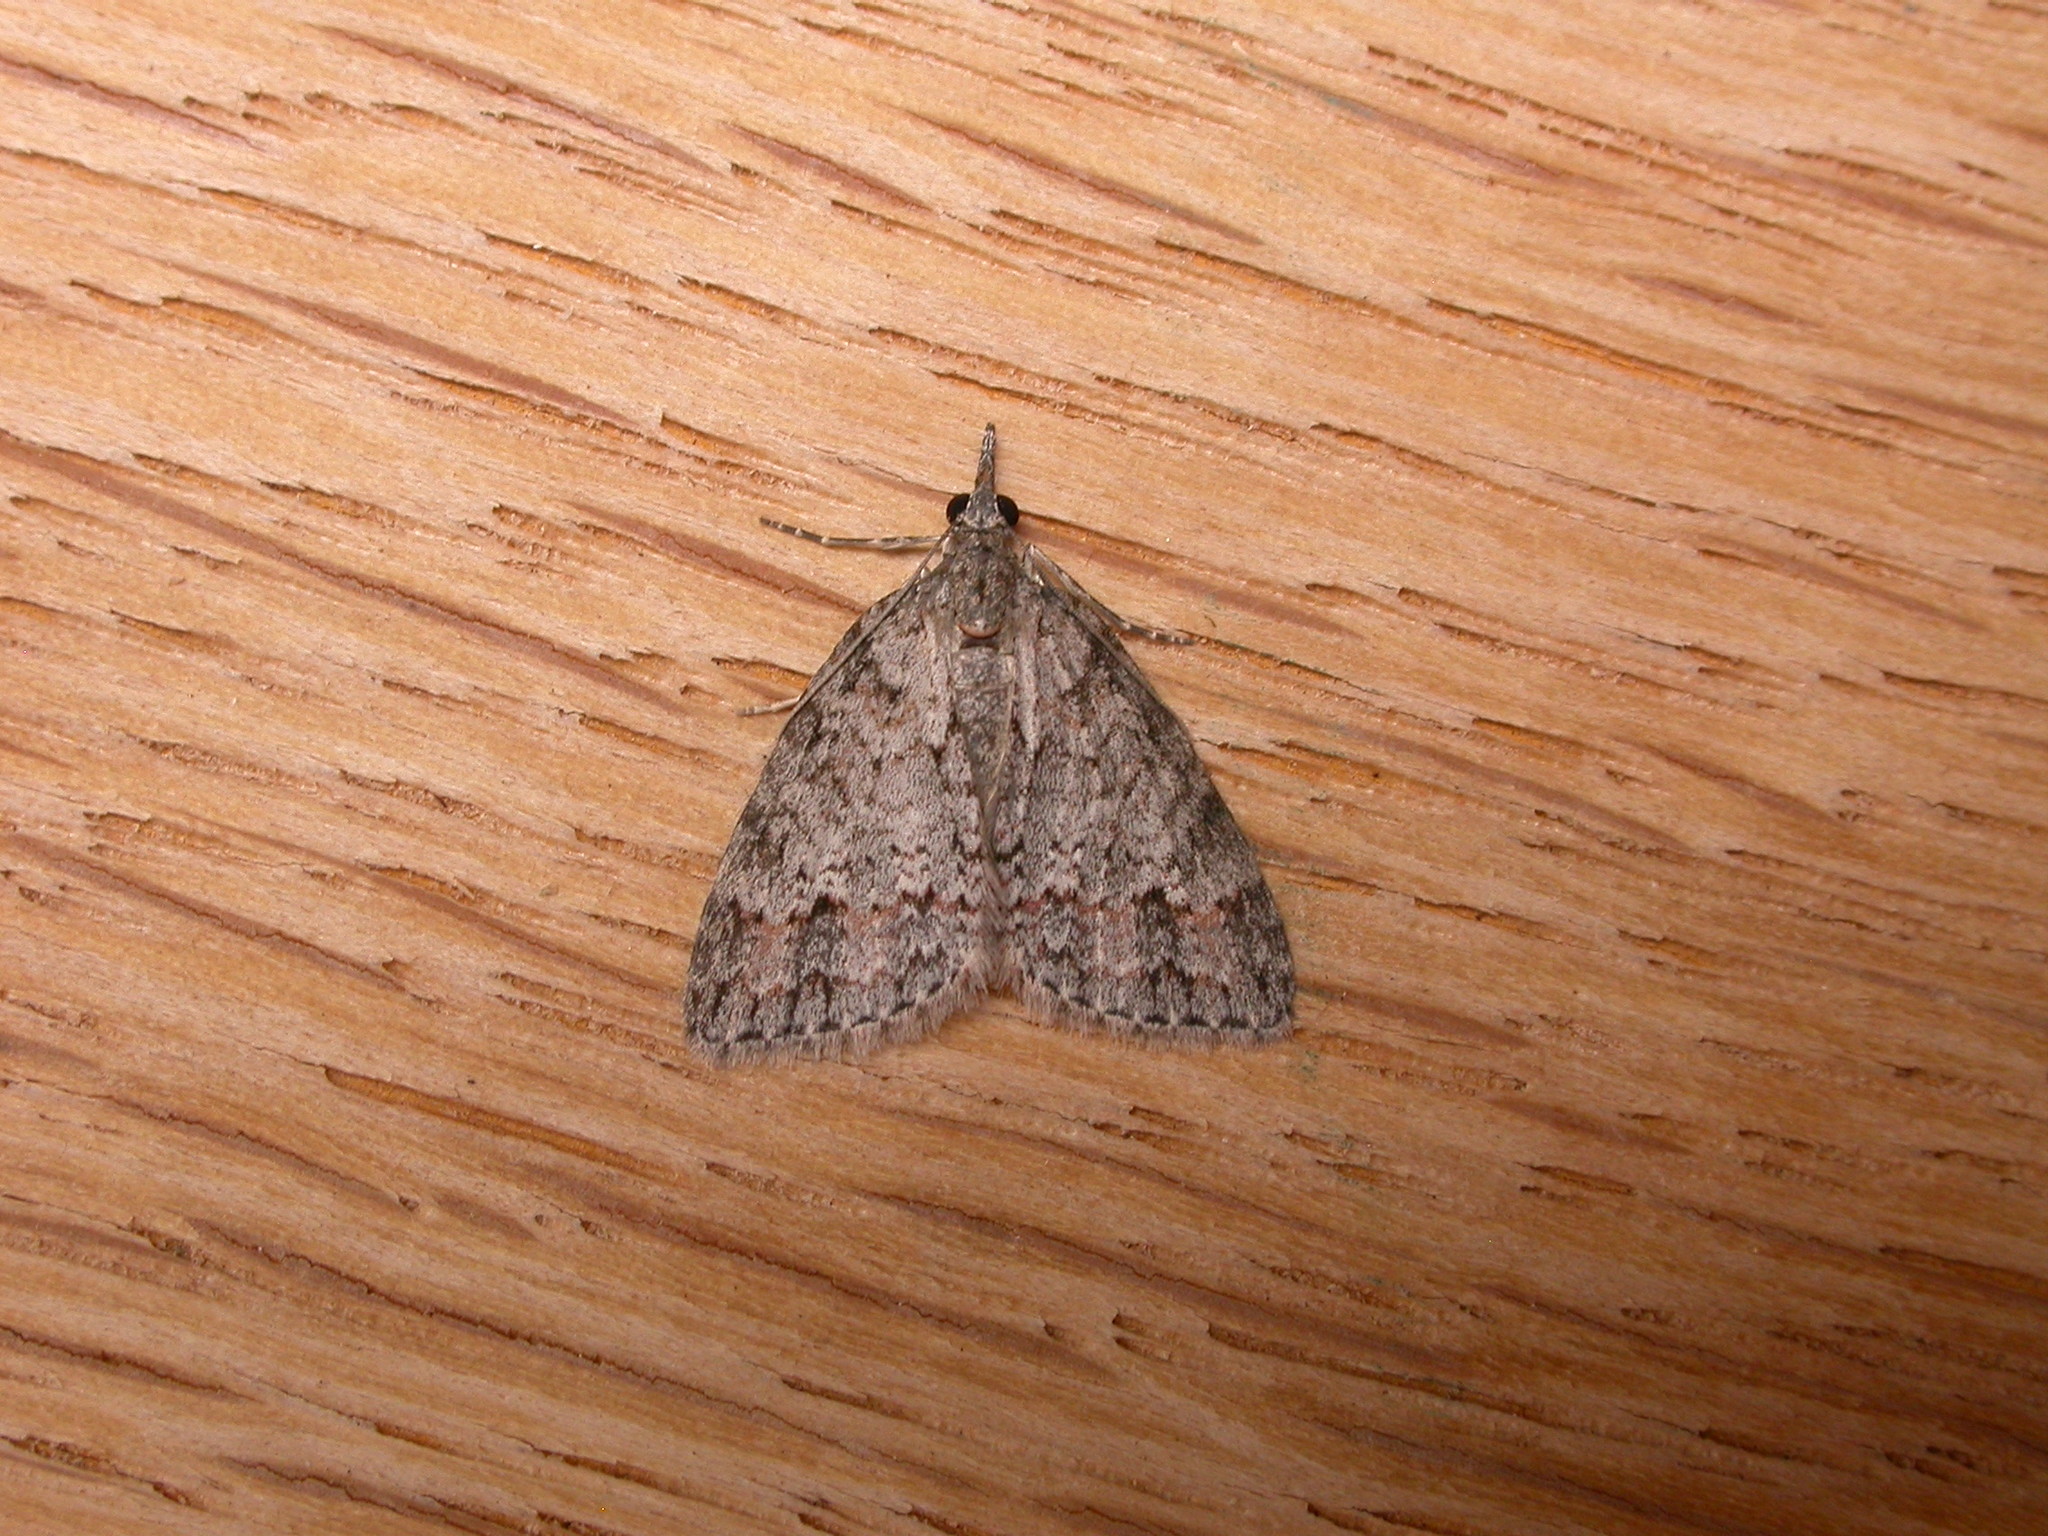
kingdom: Animalia
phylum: Arthropoda
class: Insecta
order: Lepidoptera
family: Geometridae
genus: Microdes
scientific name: Microdes villosata
